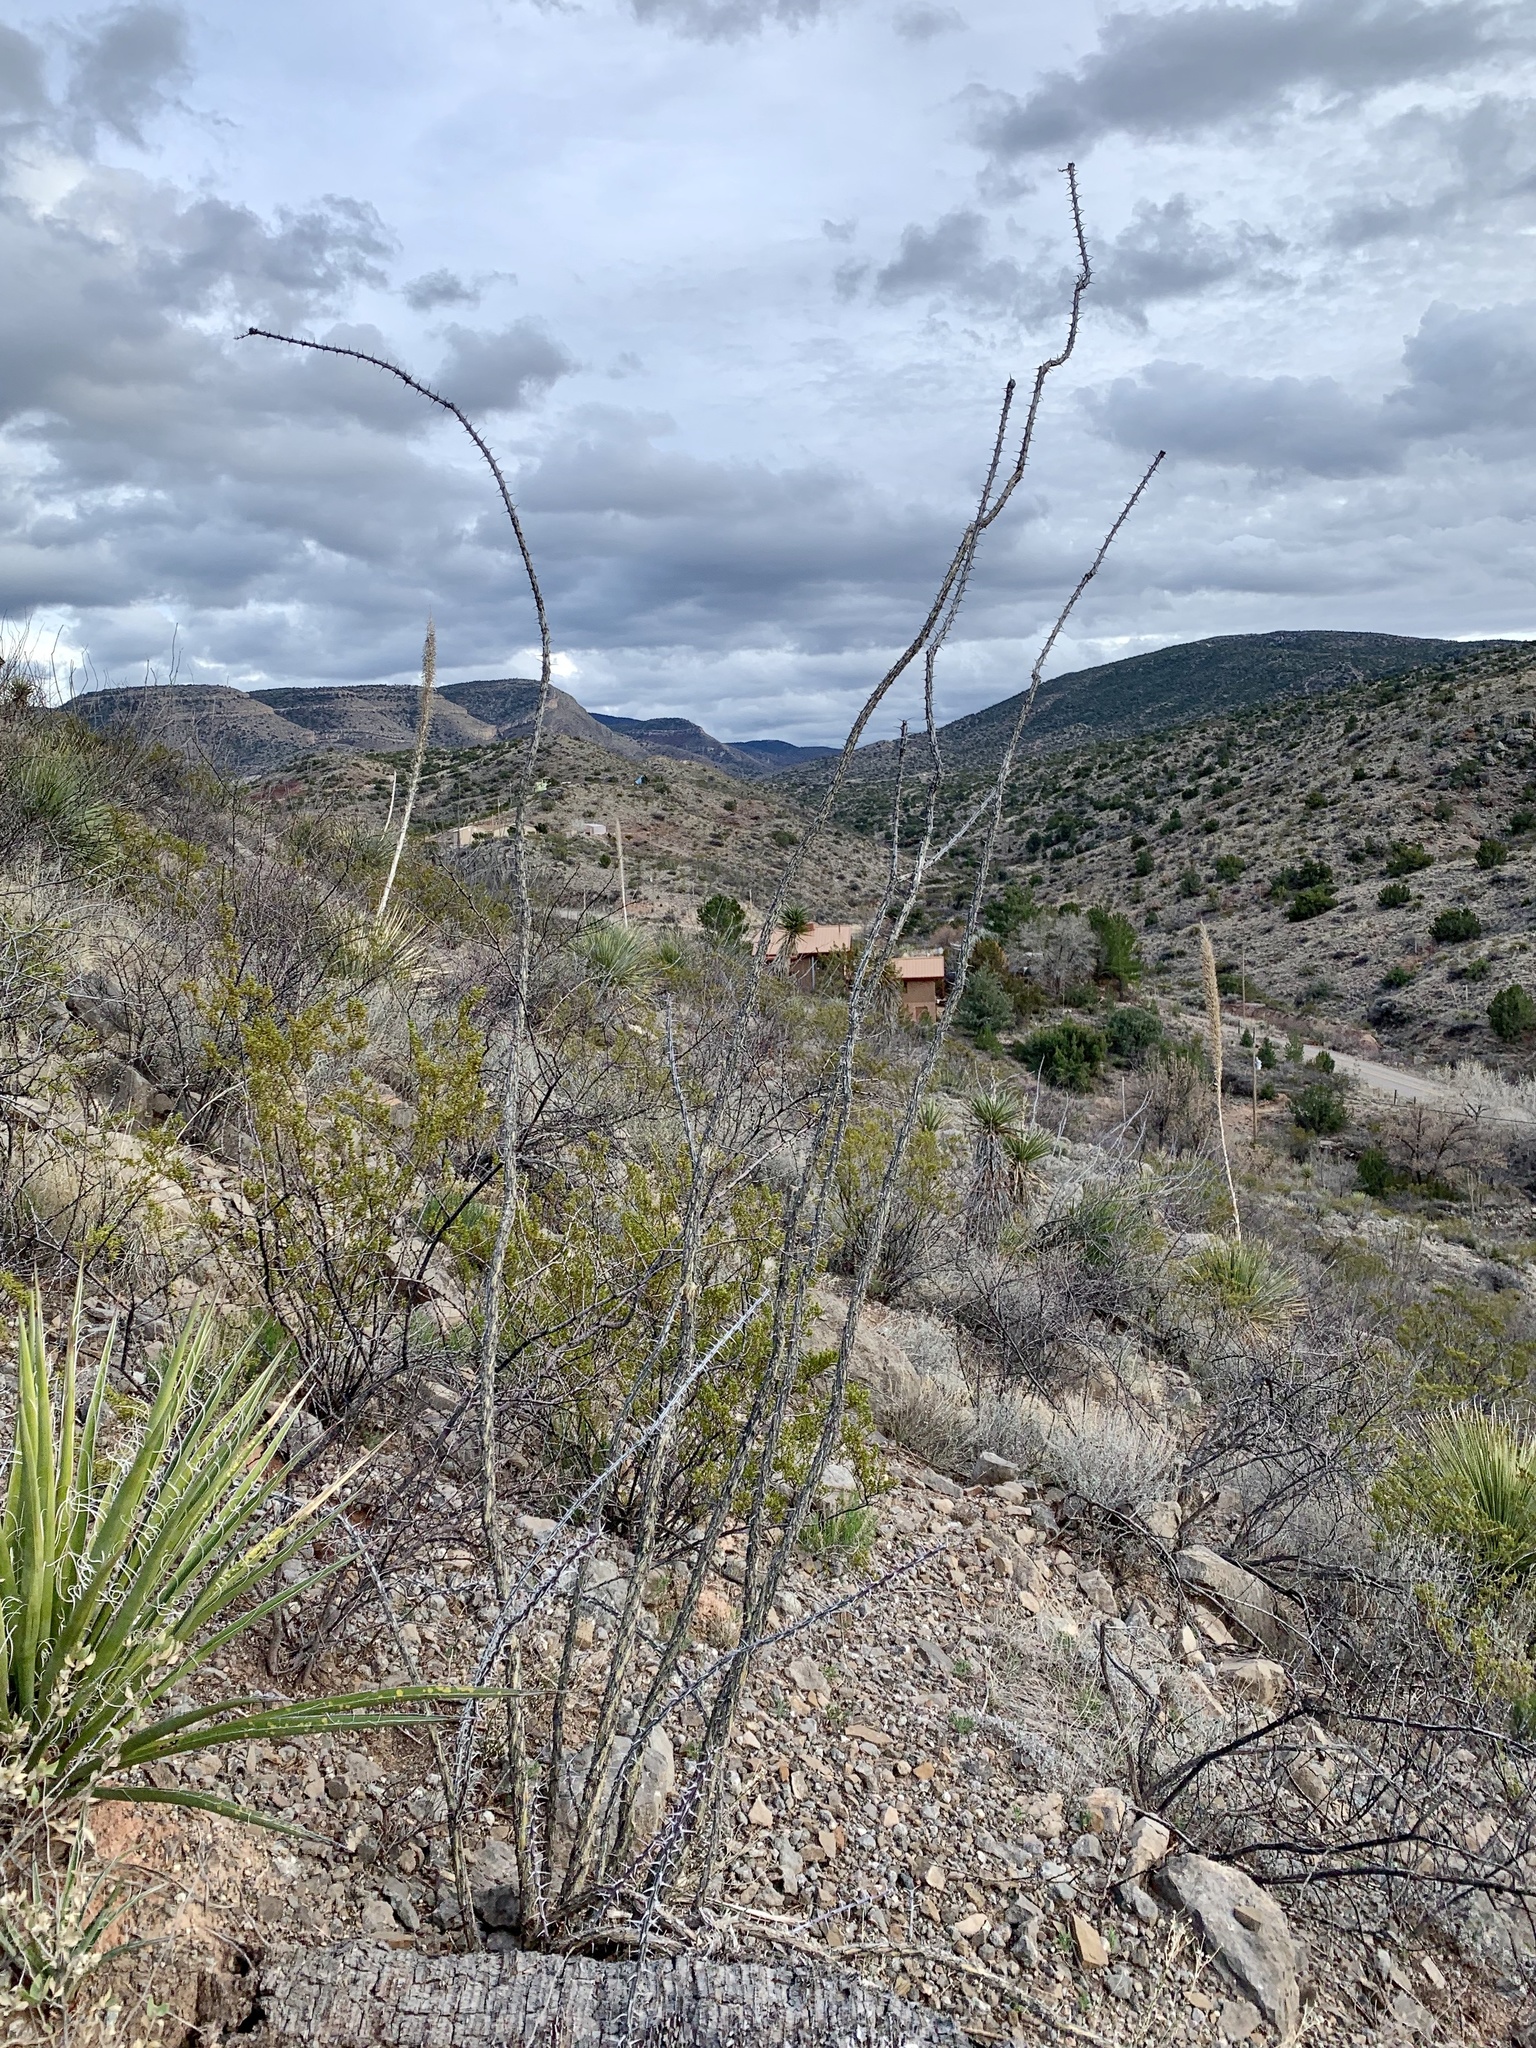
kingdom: Plantae
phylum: Tracheophyta
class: Magnoliopsida
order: Ericales
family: Fouquieriaceae
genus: Fouquieria
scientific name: Fouquieria splendens
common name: Vine-cactus
